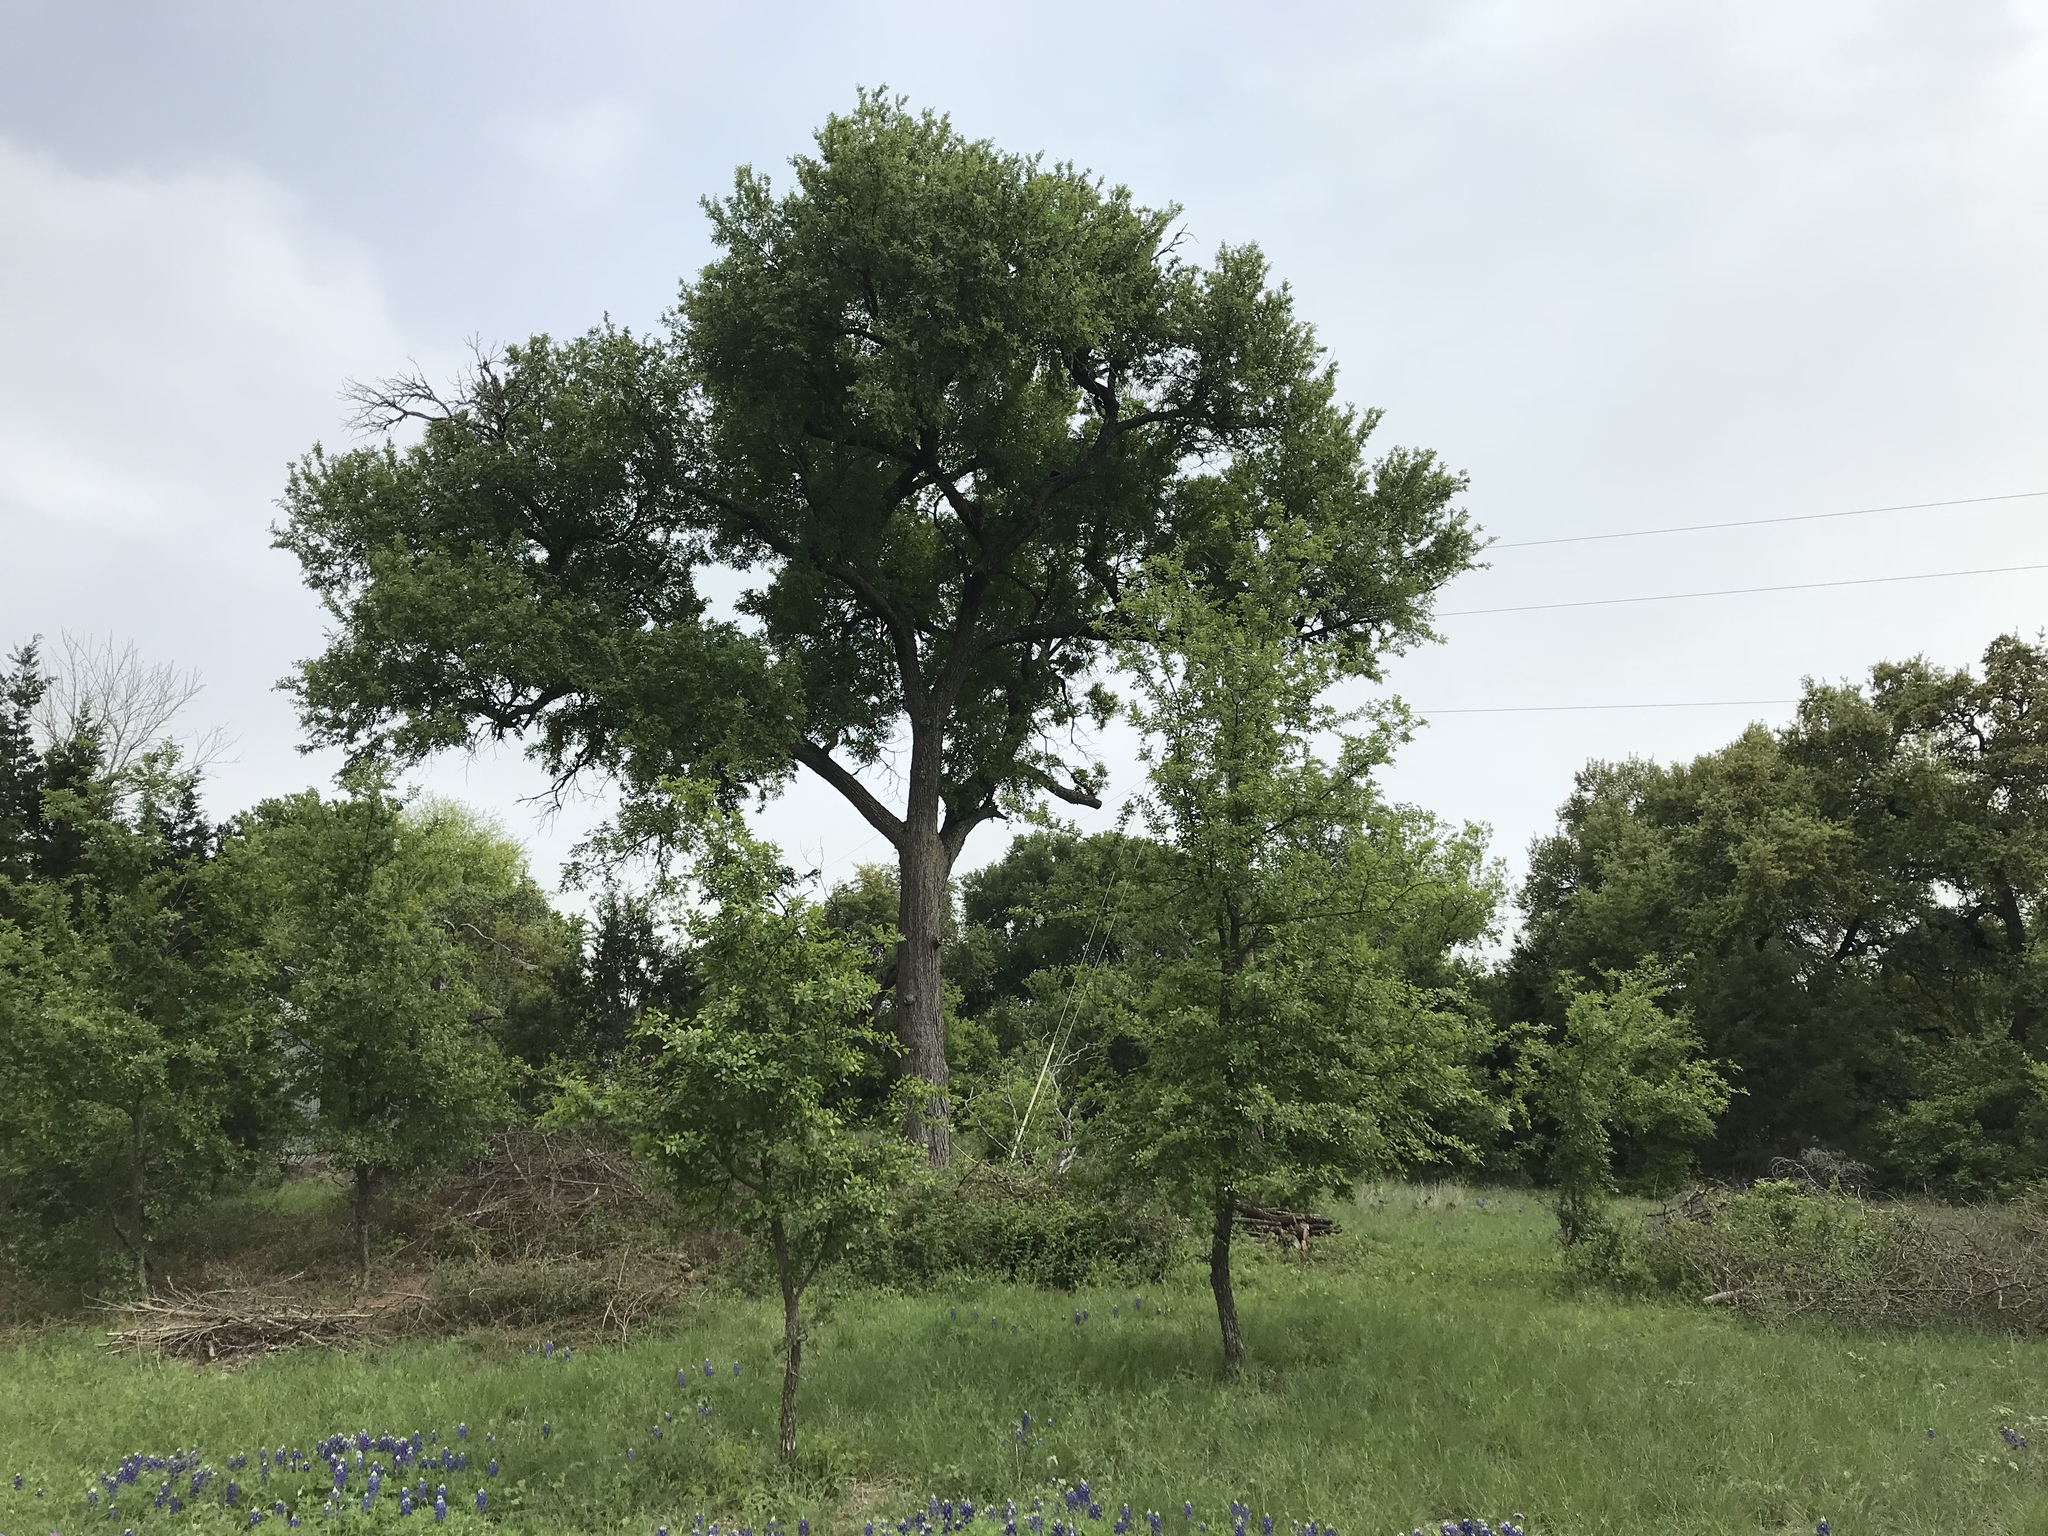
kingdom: Plantae
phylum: Tracheophyta
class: Magnoliopsida
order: Rosales
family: Ulmaceae
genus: Ulmus
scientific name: Ulmus crassifolia
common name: Basket elm
